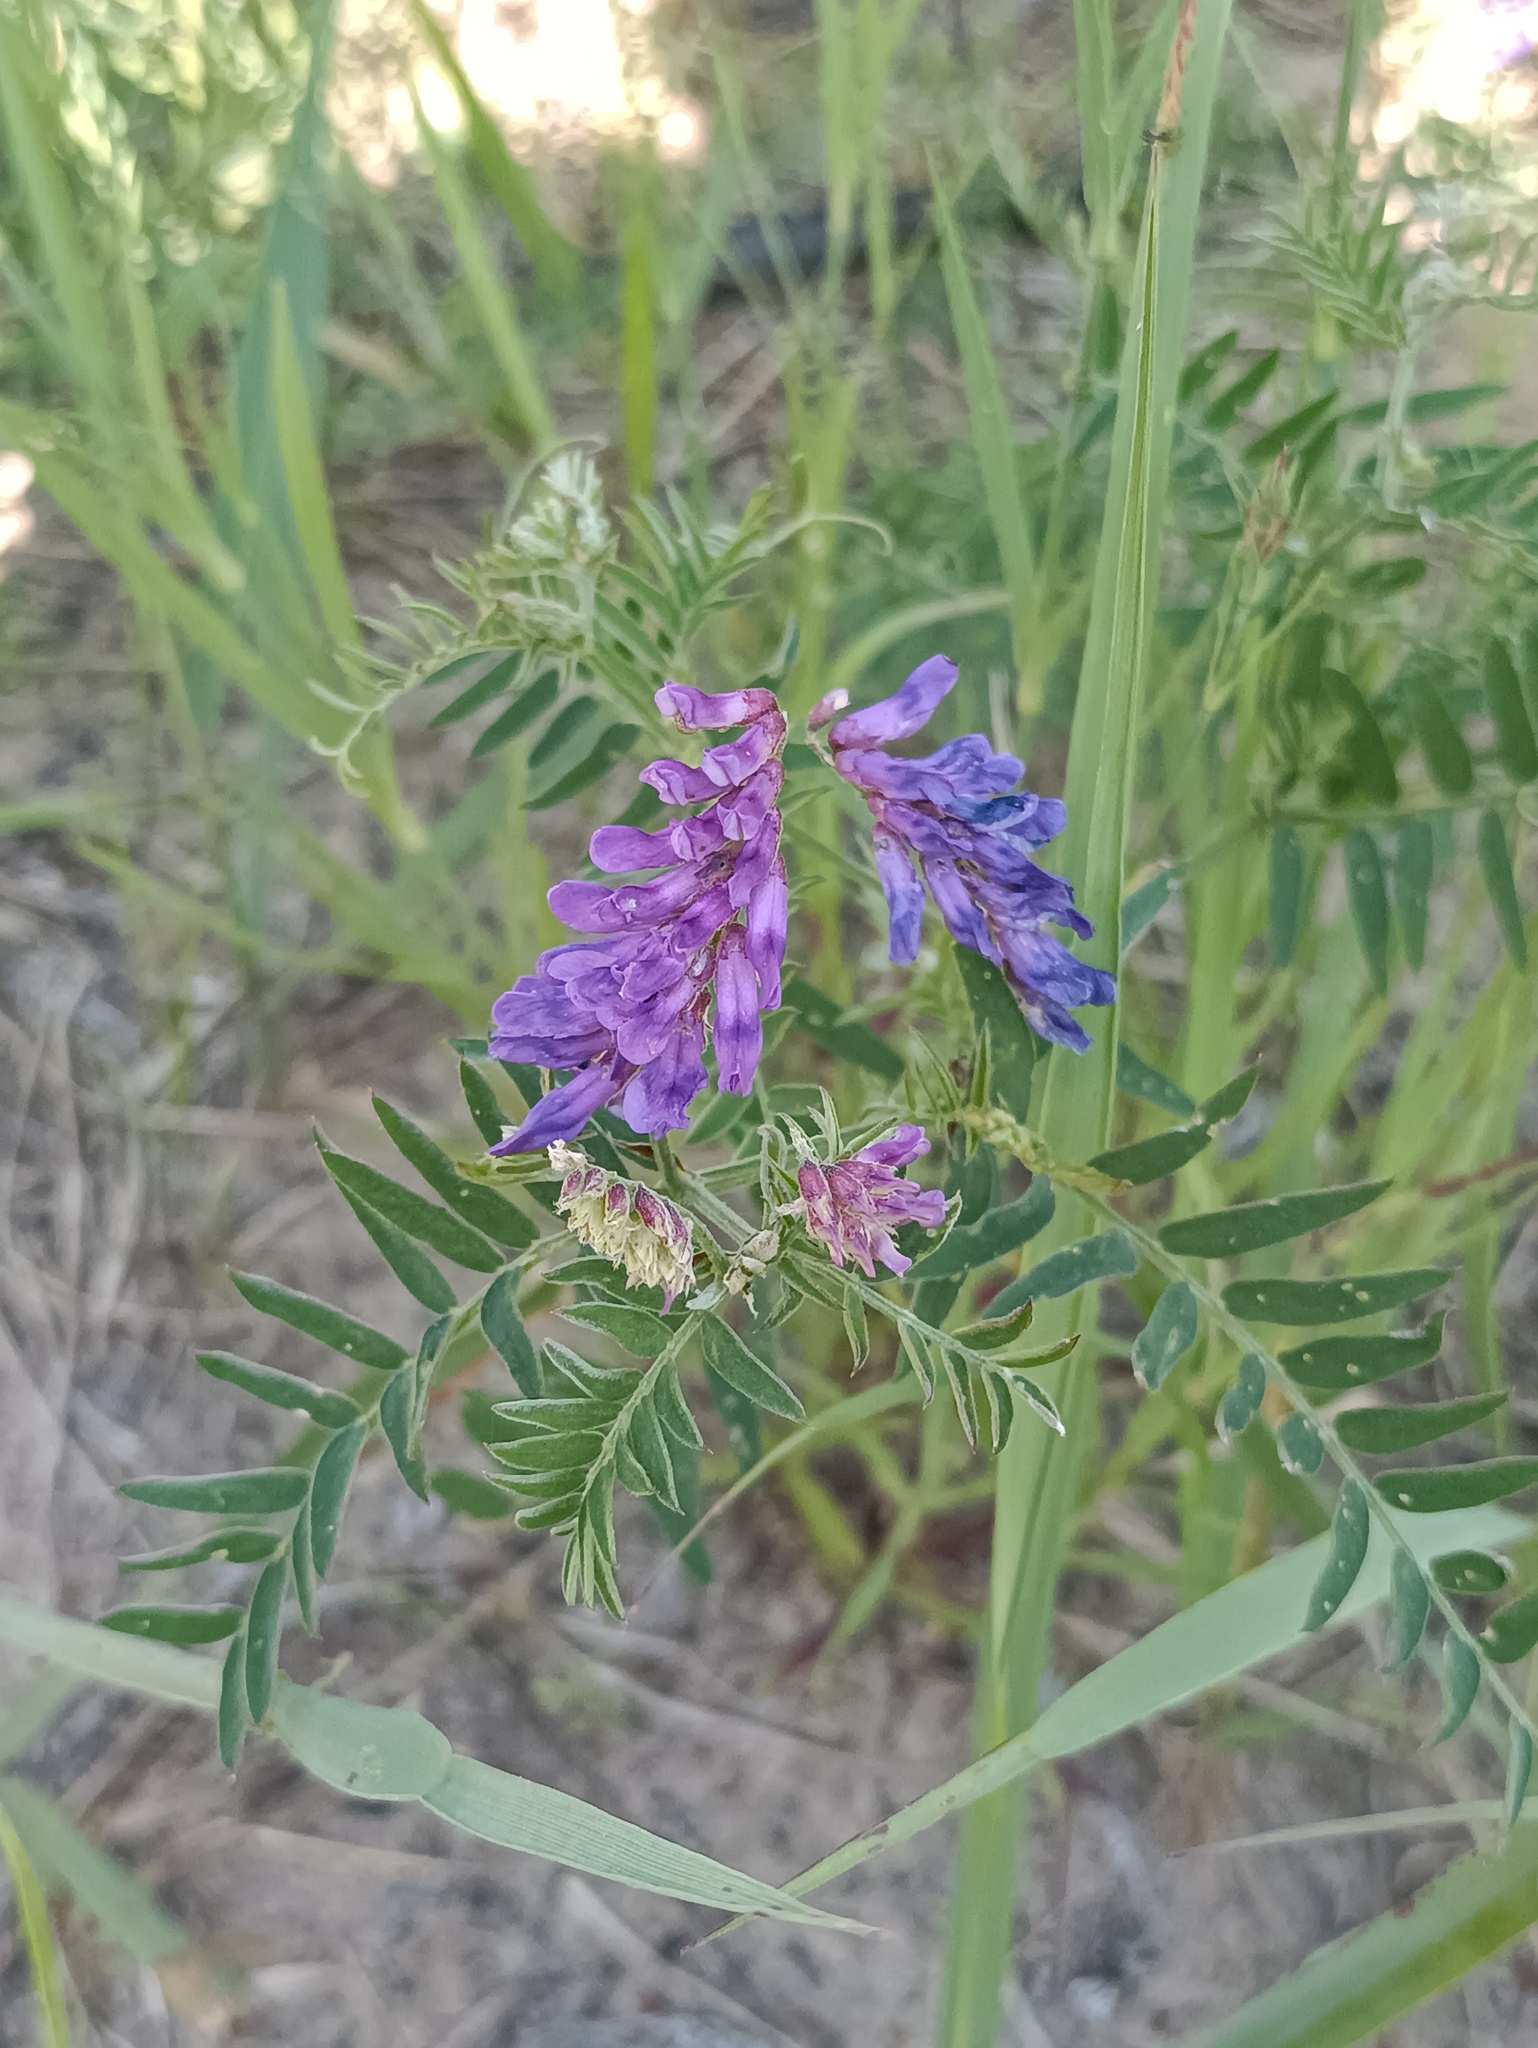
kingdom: Plantae
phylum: Tracheophyta
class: Magnoliopsida
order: Fabales
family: Fabaceae
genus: Vicia
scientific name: Vicia cracca
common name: Bird vetch
